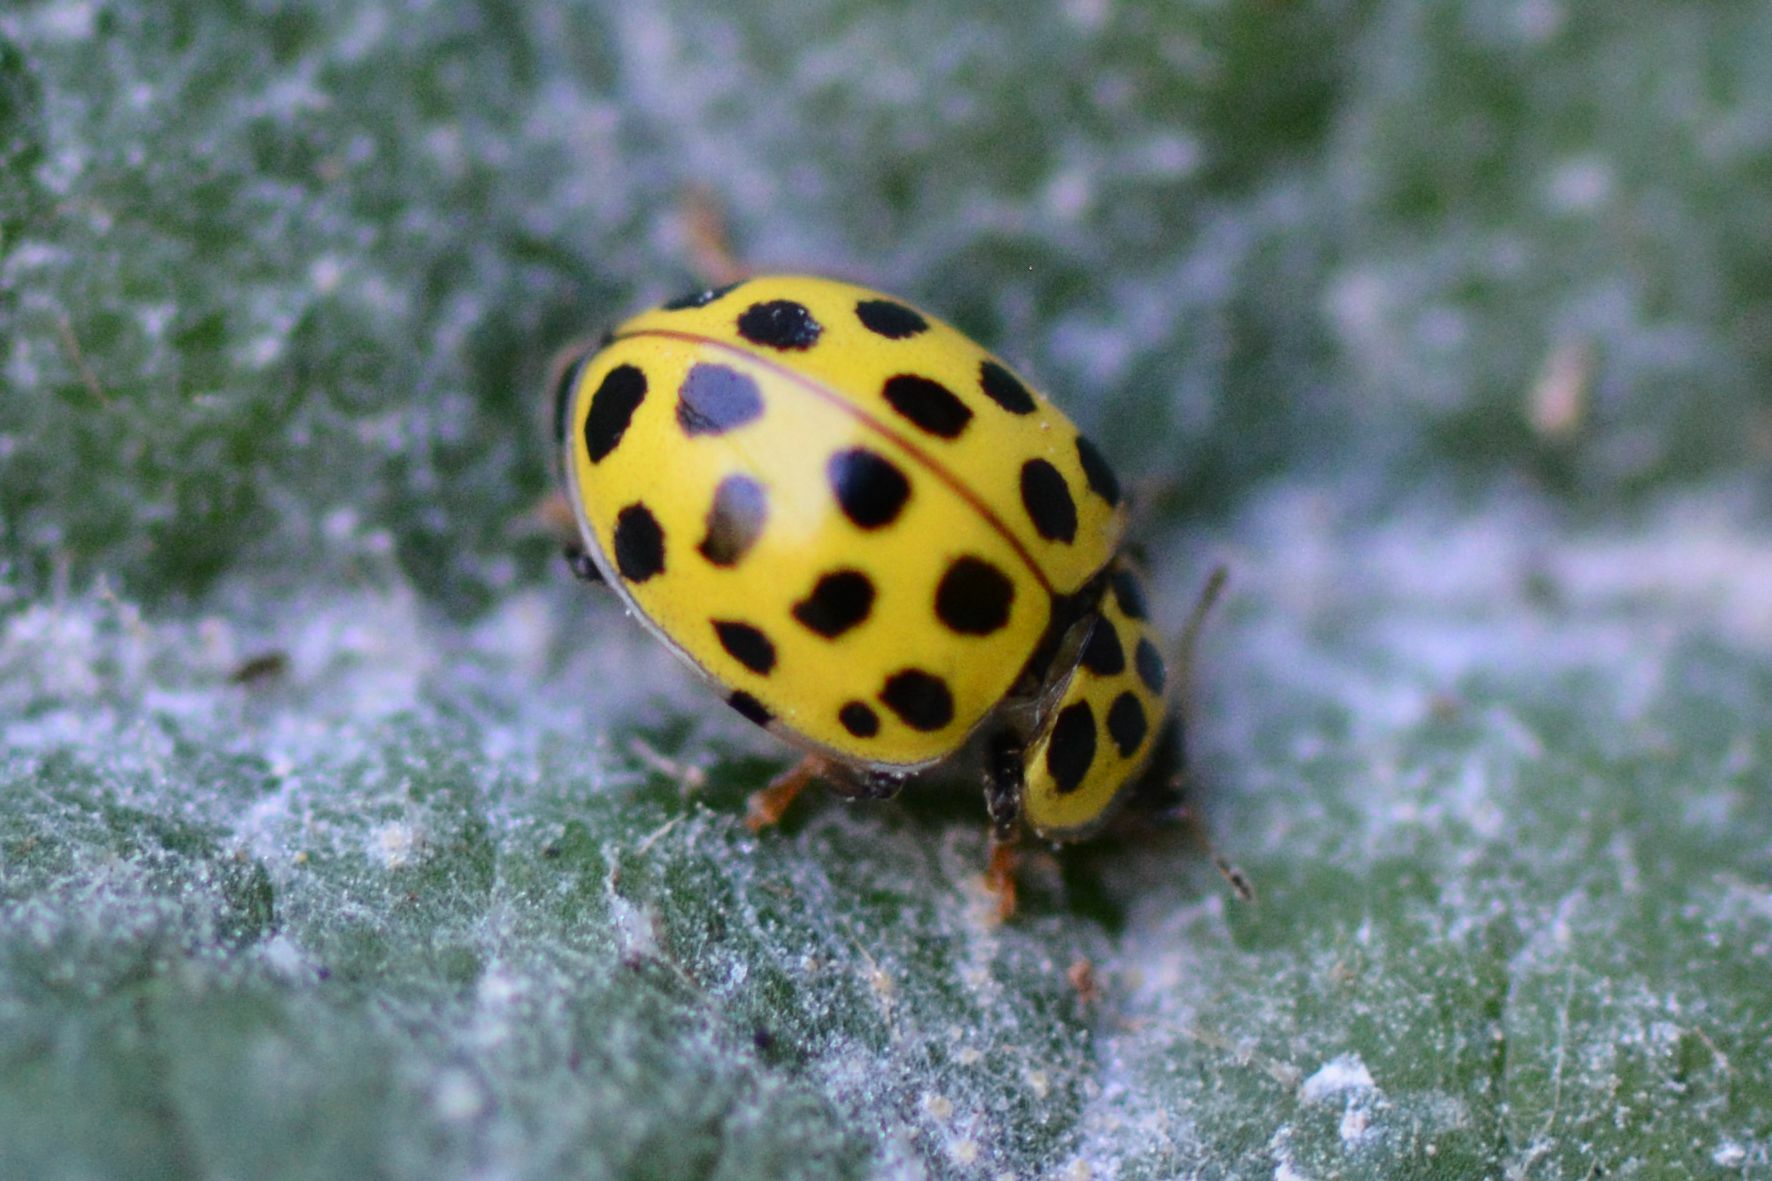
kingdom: Animalia
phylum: Arthropoda
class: Insecta
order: Coleoptera
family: Coccinellidae
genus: Psyllobora
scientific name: Psyllobora vigintiduopunctata
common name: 22-spot ladybird
